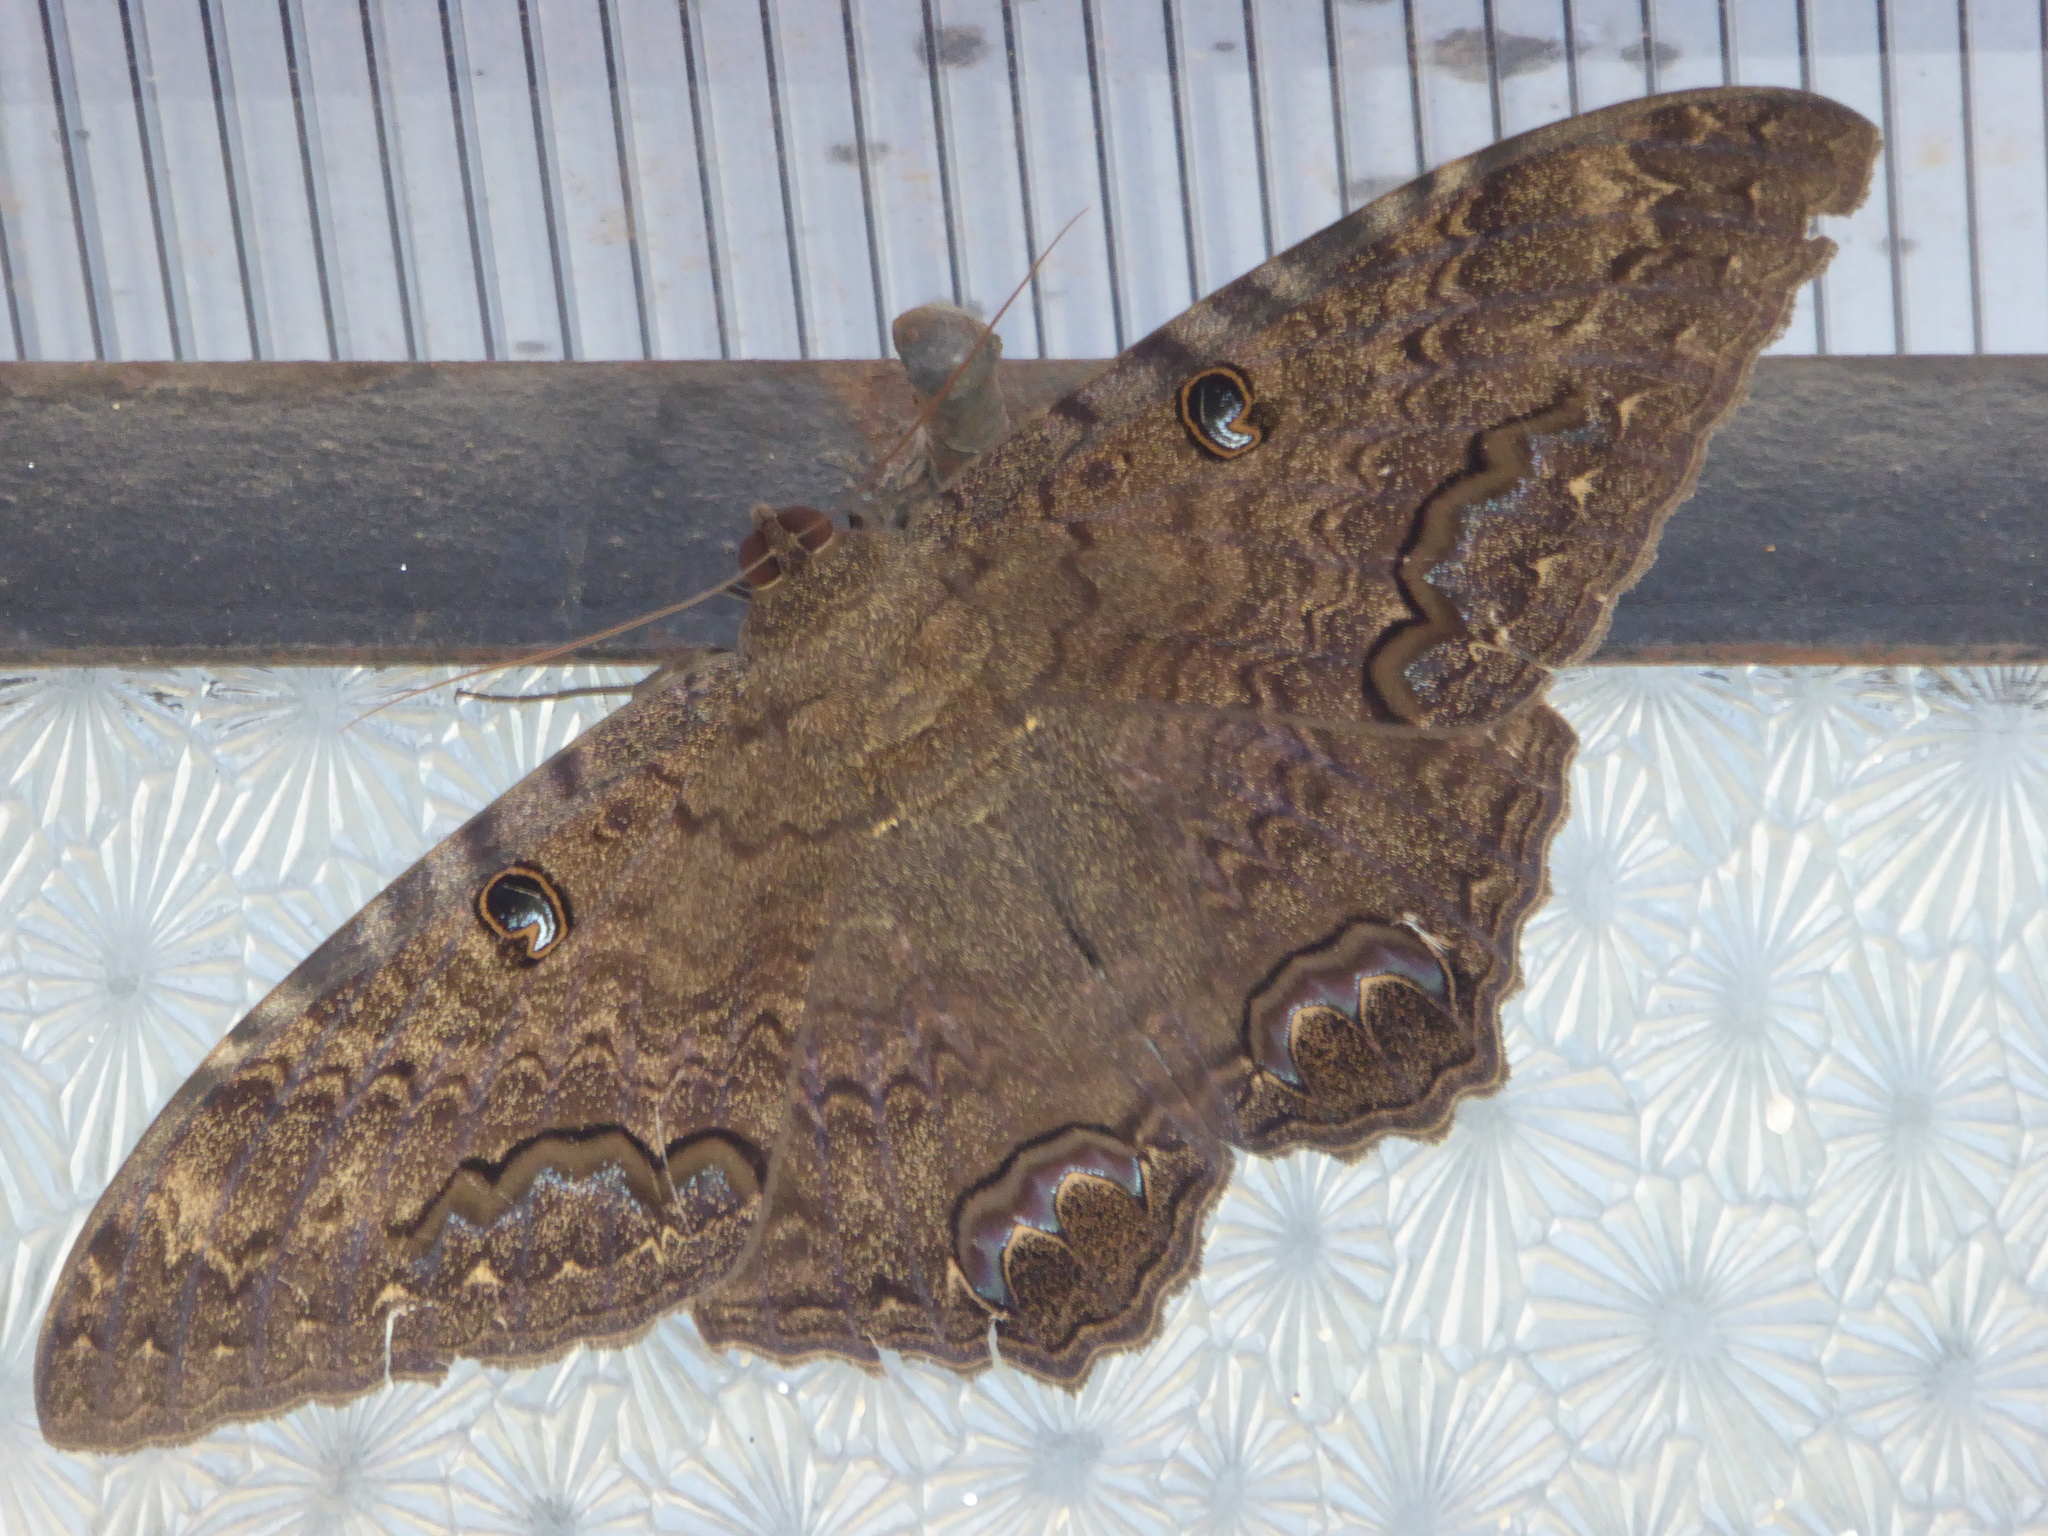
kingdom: Animalia
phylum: Arthropoda
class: Insecta
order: Lepidoptera
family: Erebidae
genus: Ascalapha
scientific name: Ascalapha odorata
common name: Black witch
